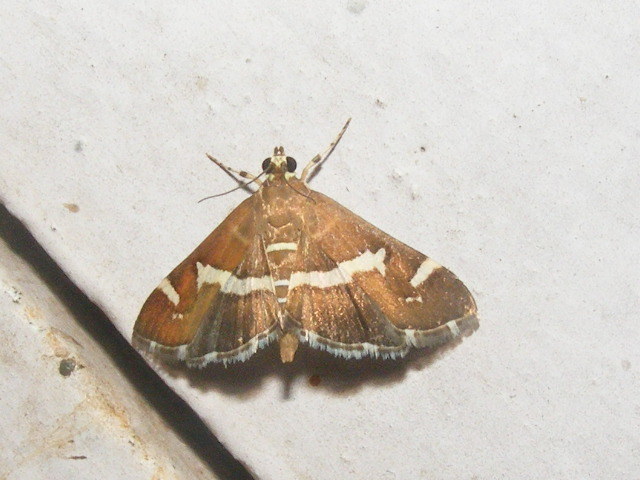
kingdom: Animalia
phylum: Arthropoda
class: Insecta
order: Lepidoptera
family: Crambidae
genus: Spoladea
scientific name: Spoladea recurvalis
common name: Beet webworm moth
